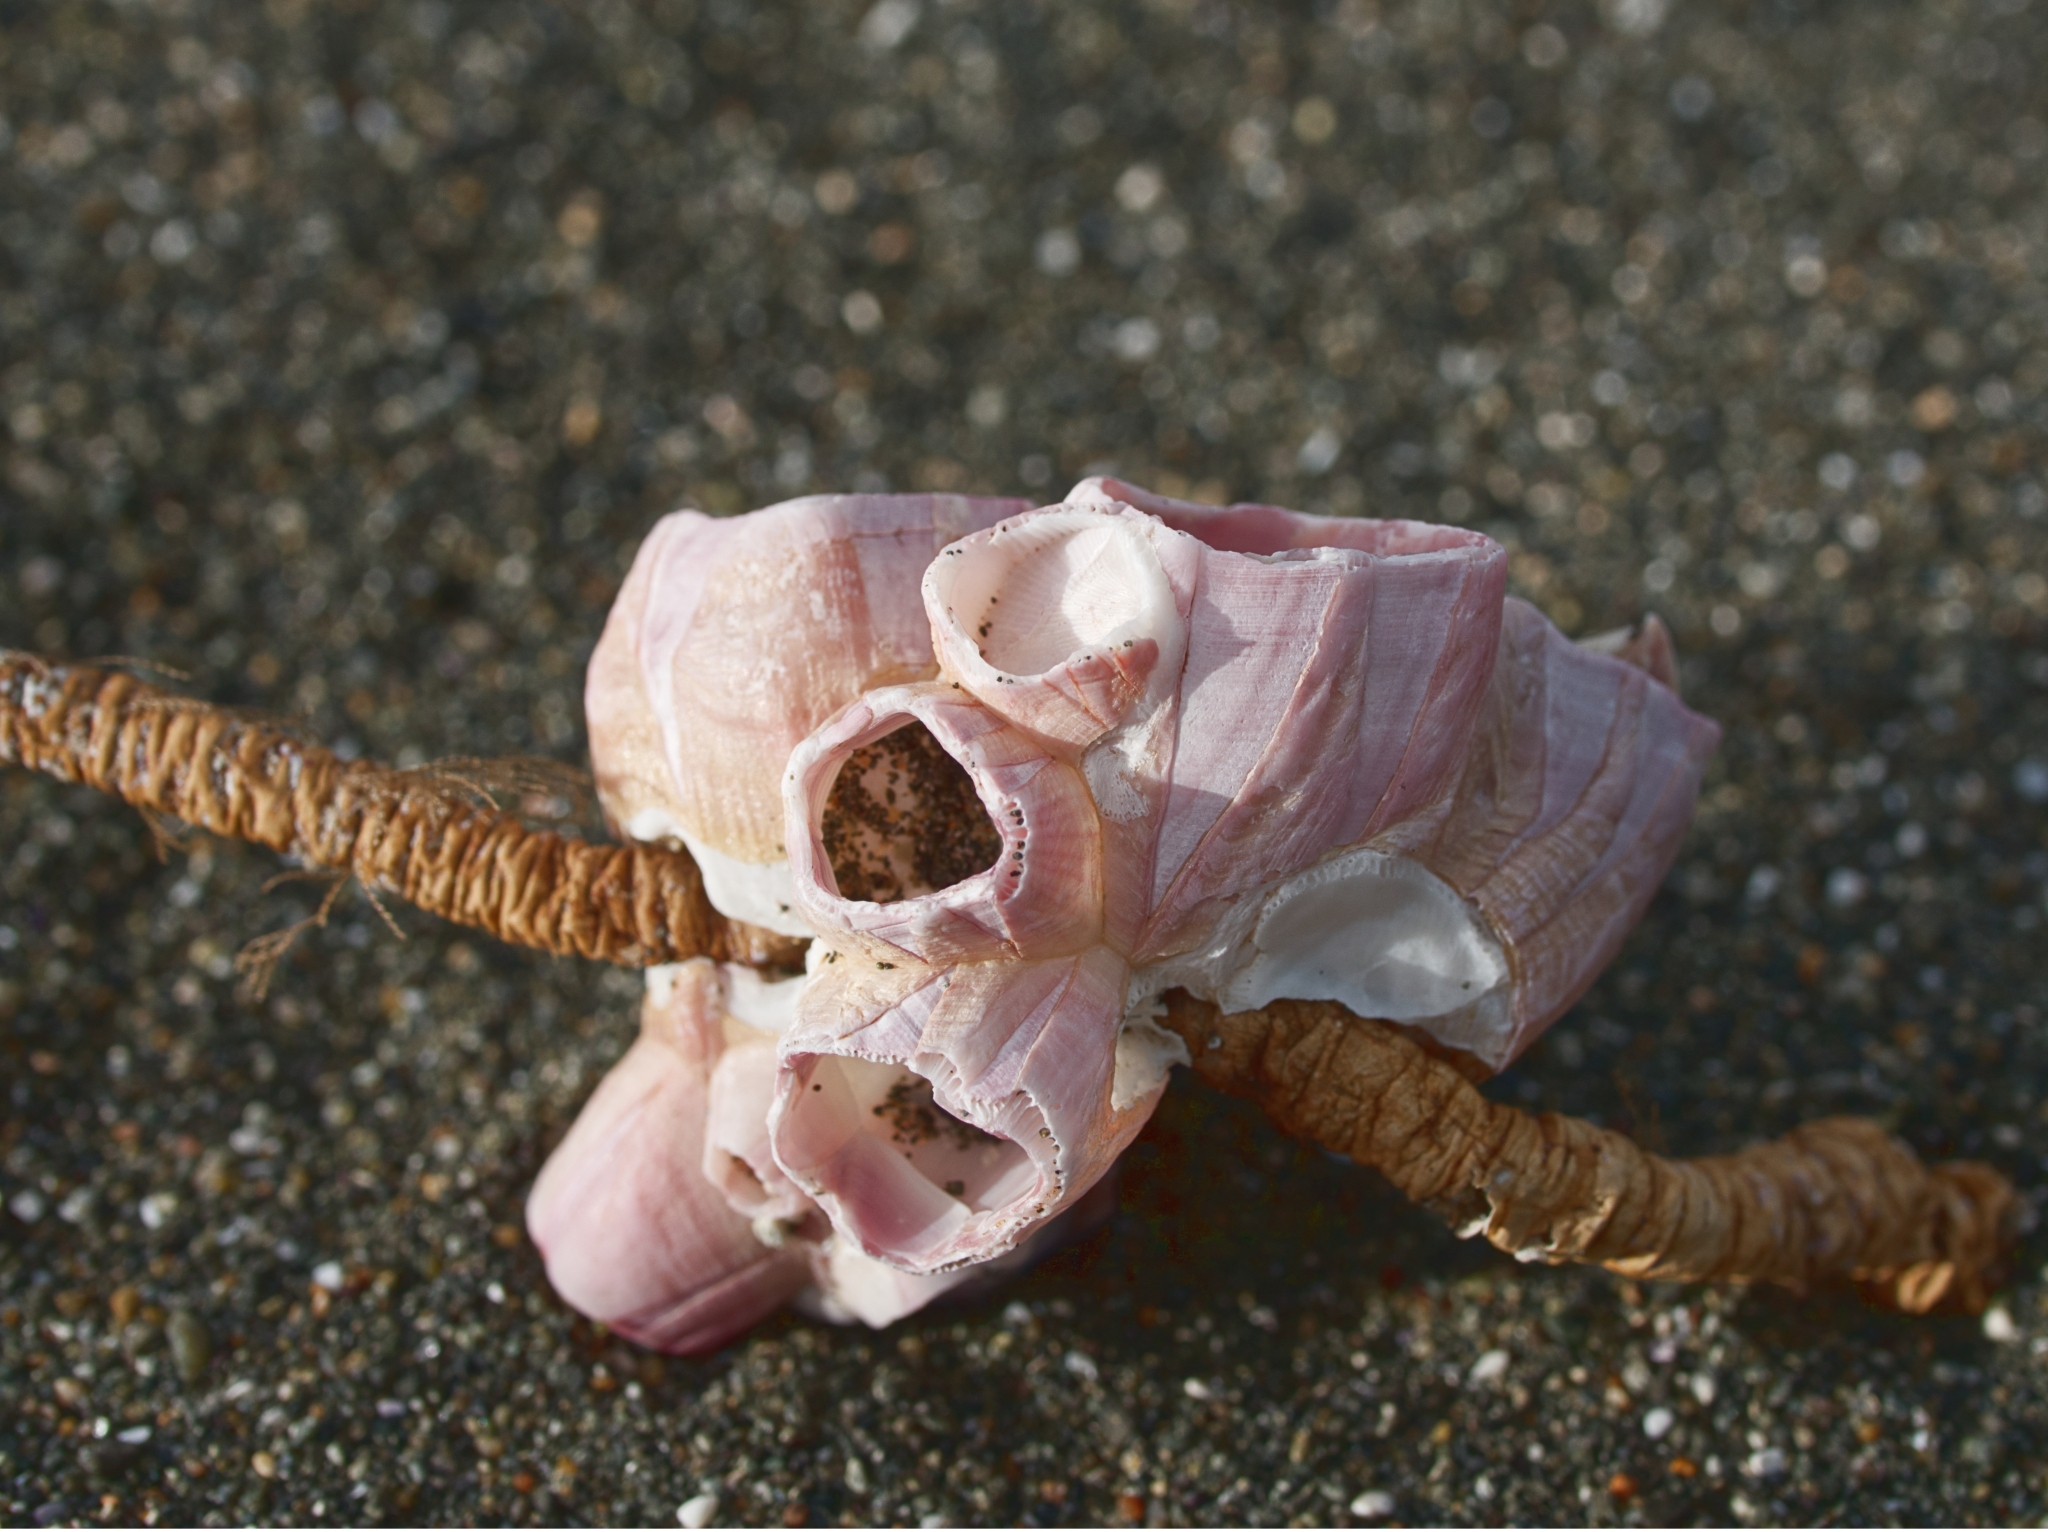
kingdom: Animalia
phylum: Arthropoda
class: Maxillopoda
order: Sessilia
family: Balanidae
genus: Notomegabalanus
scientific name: Notomegabalanus decorus
